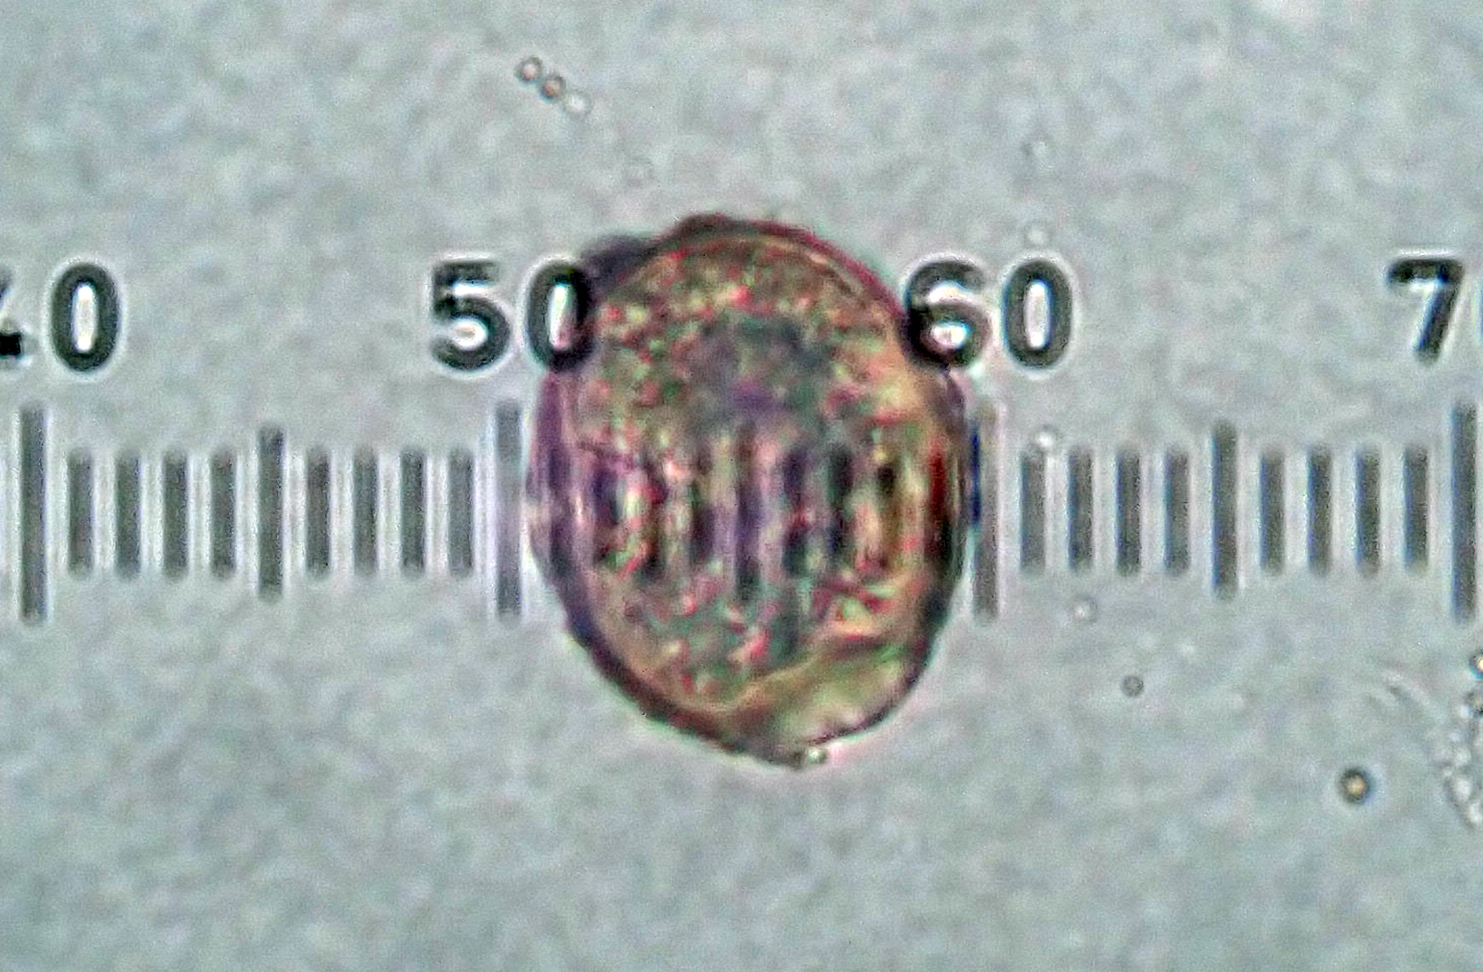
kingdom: Fungi
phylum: Basidiomycota
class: Pucciniomycetes
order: Pucciniales
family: Pucciniaceae
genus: Puccinia
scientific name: Puccinia unciniarum
